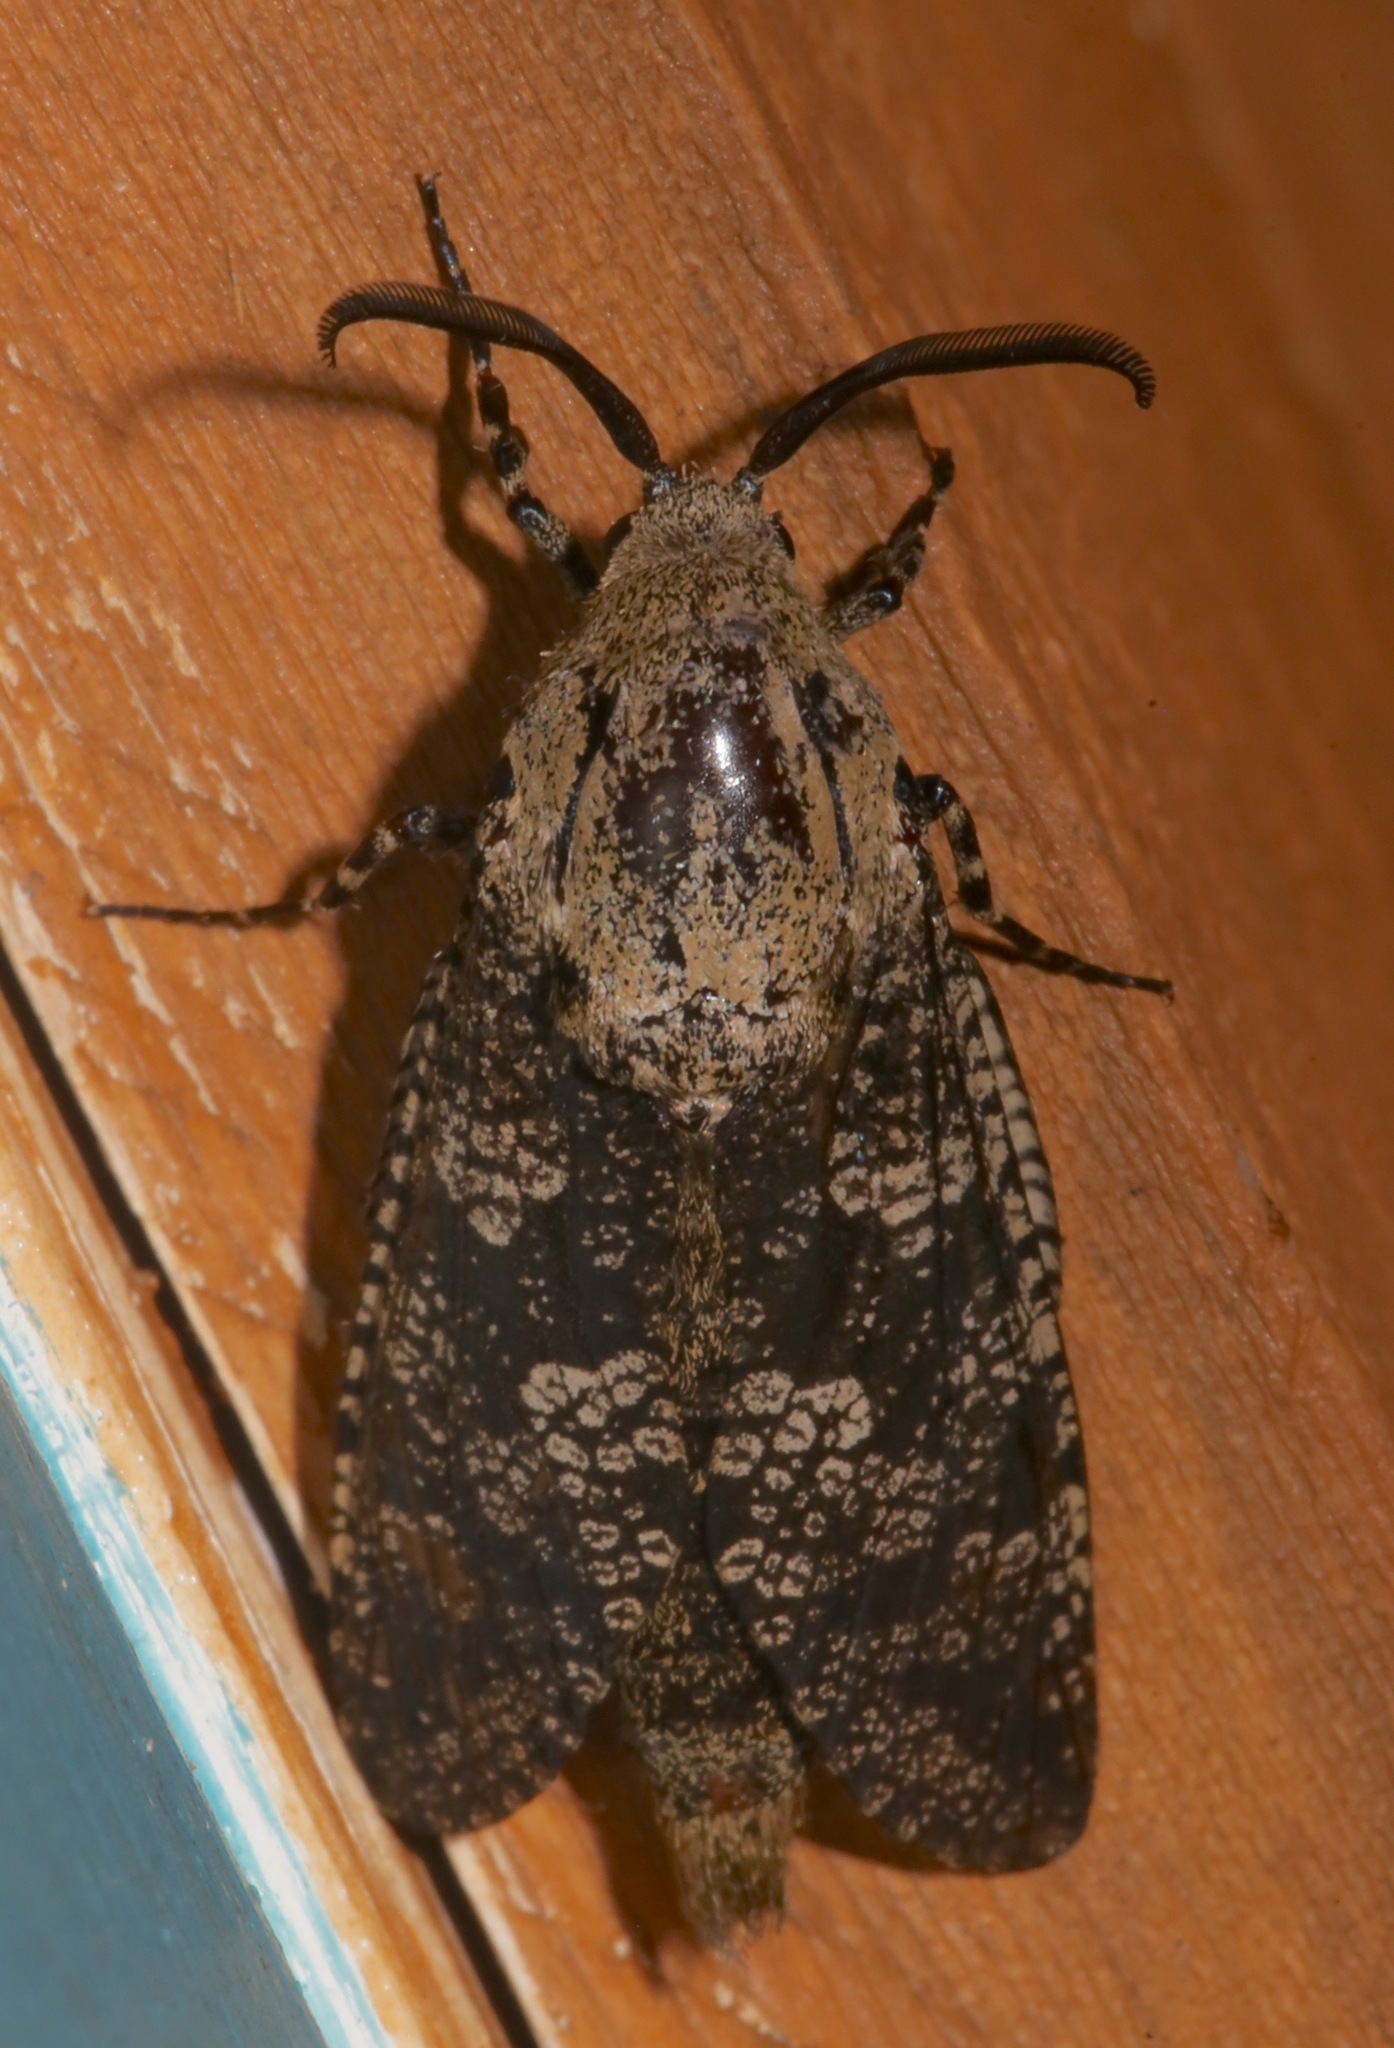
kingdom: Animalia
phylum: Arthropoda
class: Insecta
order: Lepidoptera
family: Cossidae
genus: Prionoxystus
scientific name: Prionoxystus robiniae
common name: Carpenterworm
